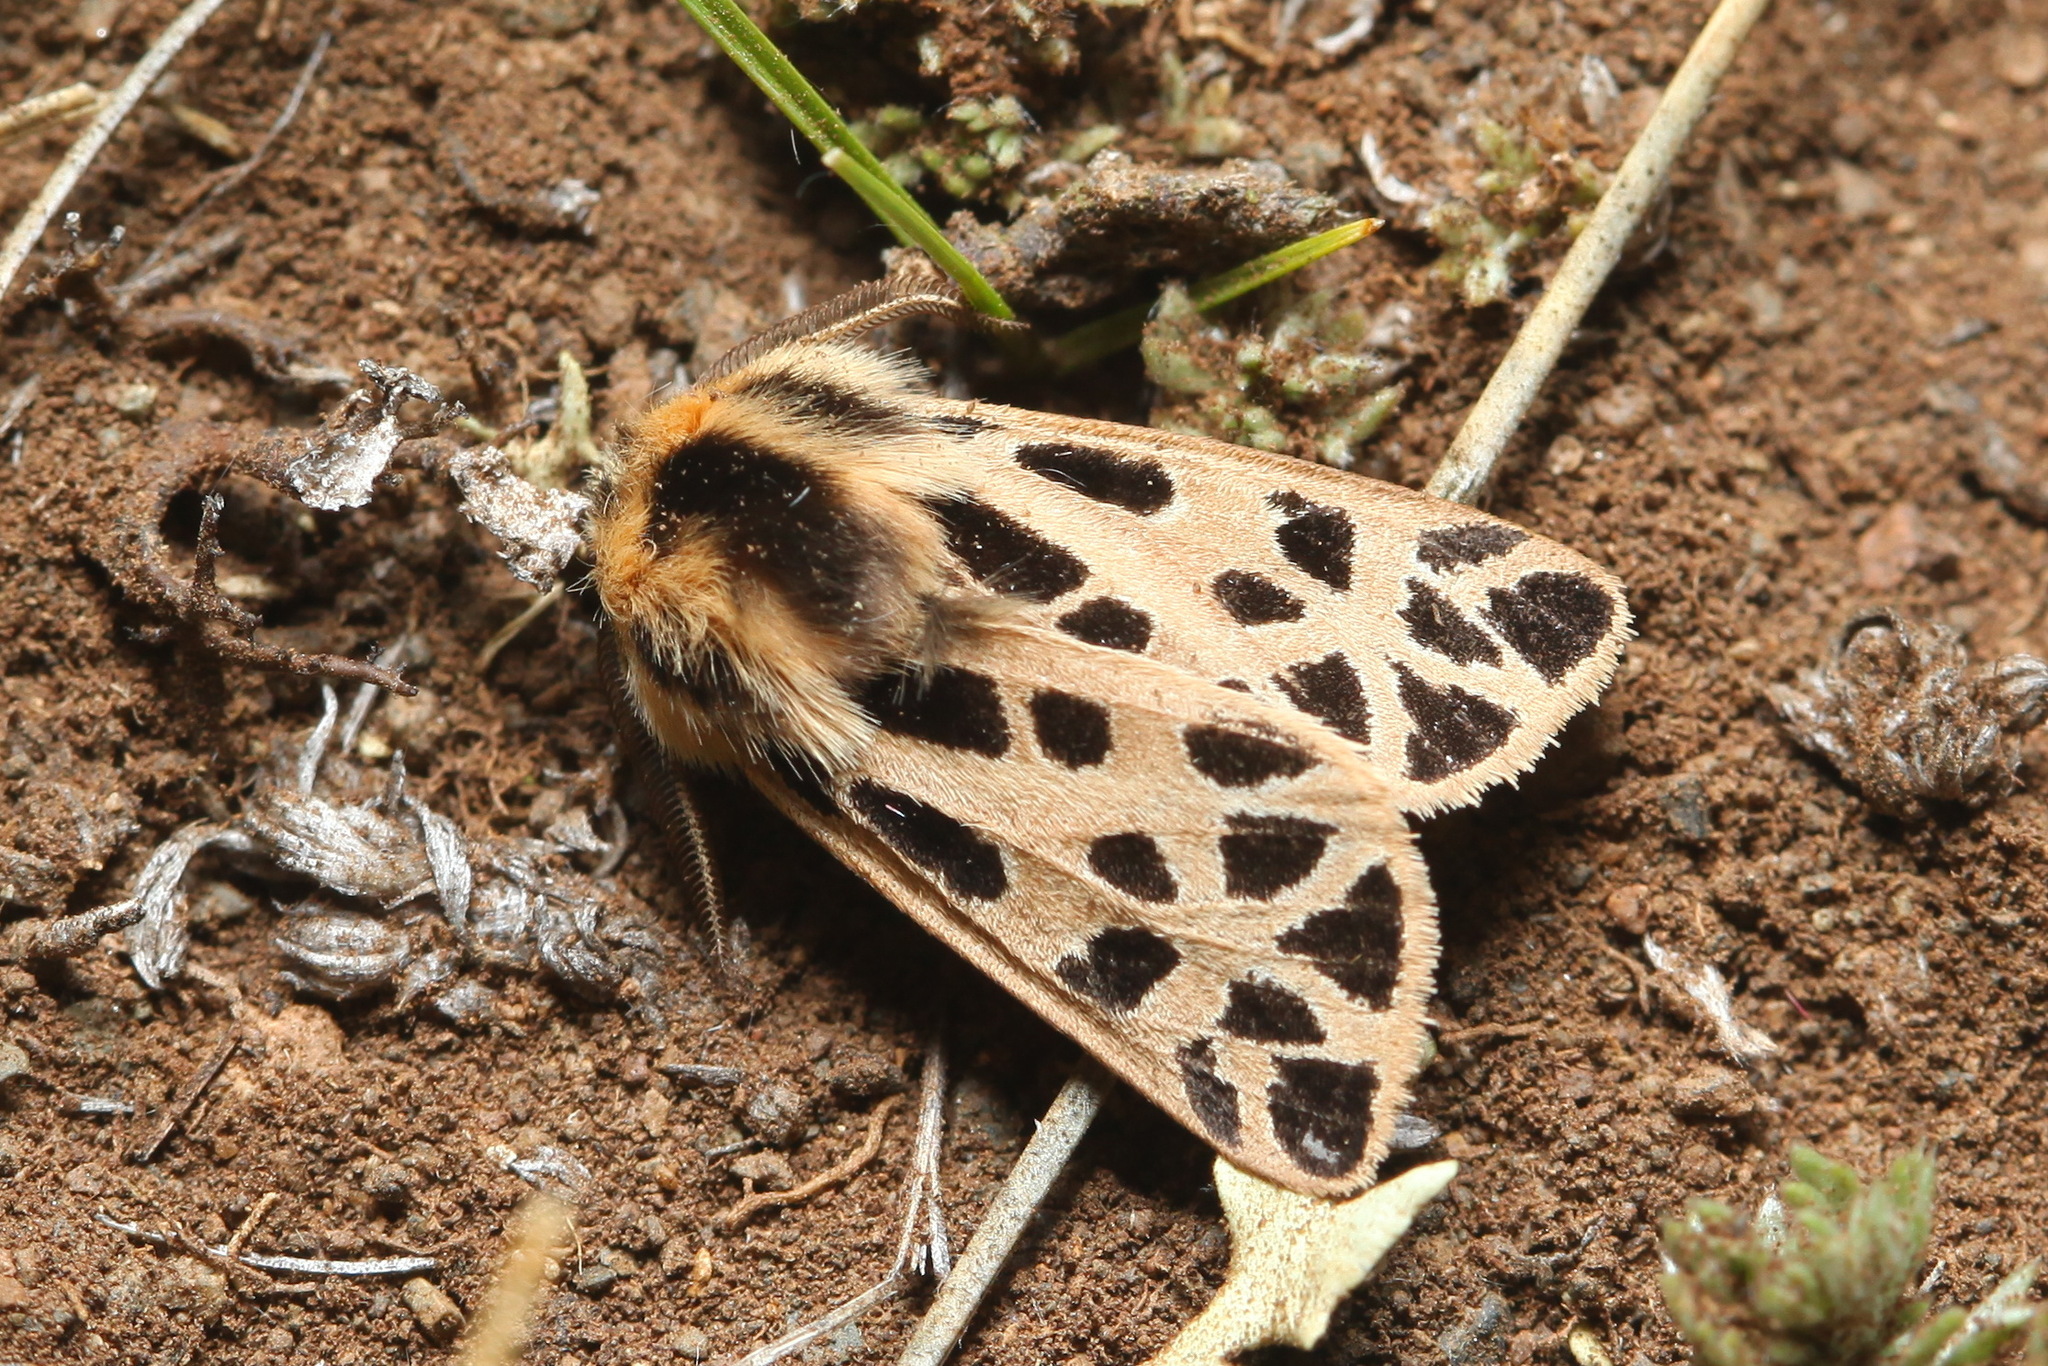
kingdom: Animalia
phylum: Arthropoda
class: Insecta
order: Lepidoptera
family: Erebidae
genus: Chelis
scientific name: Chelis caecilia
